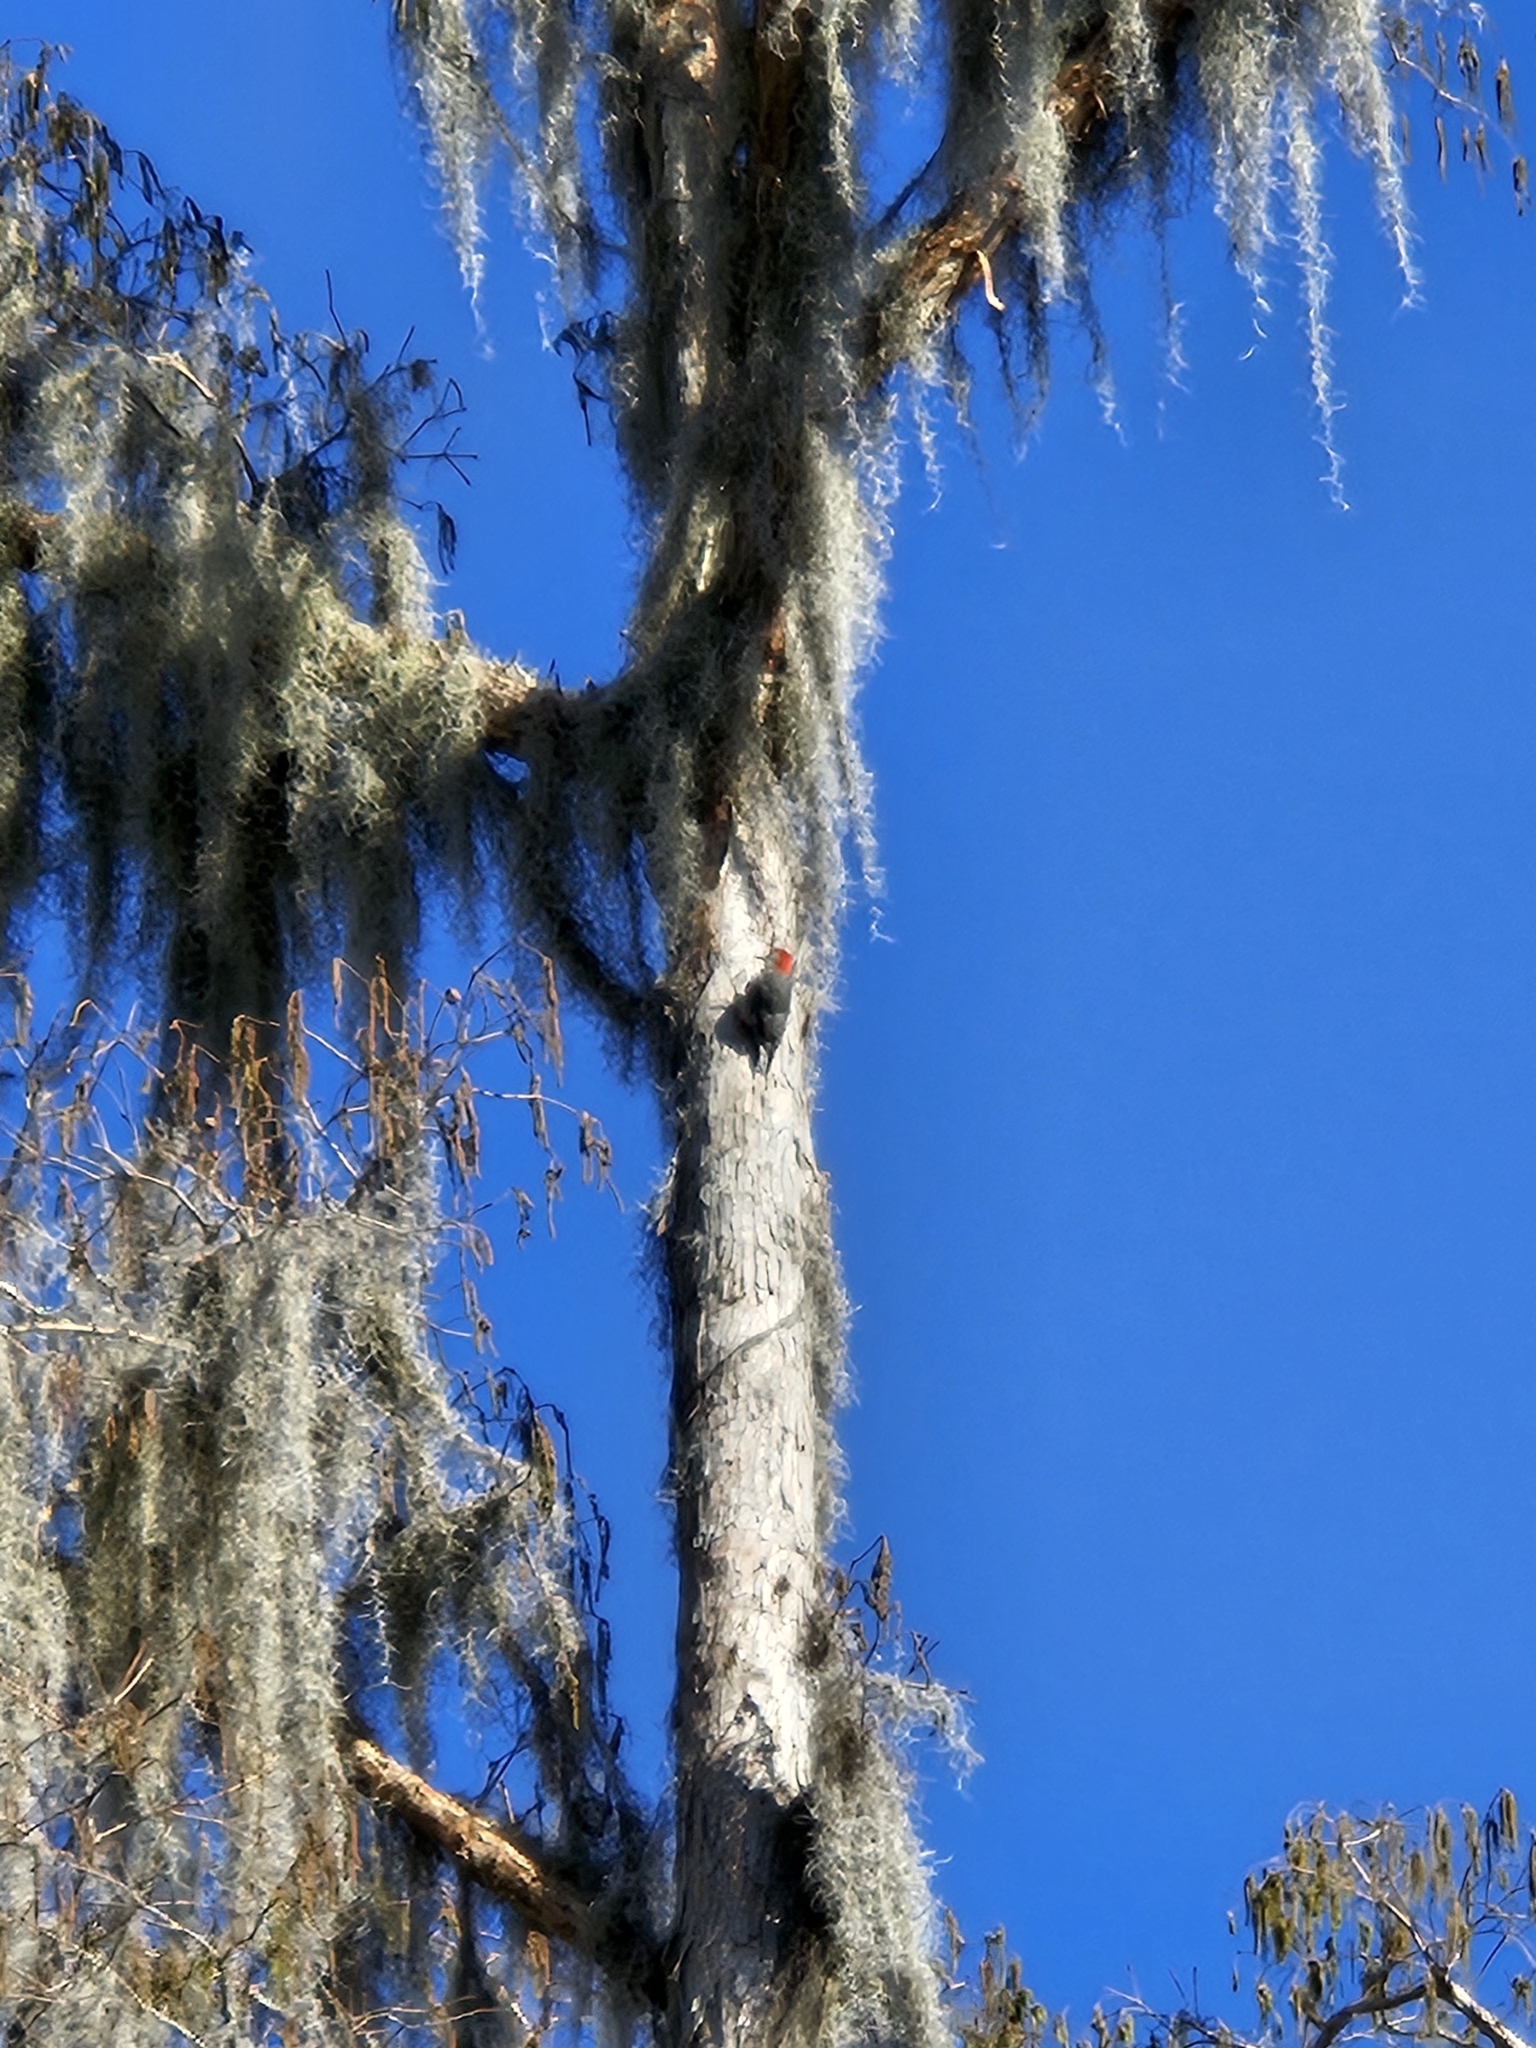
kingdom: Animalia
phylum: Chordata
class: Aves
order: Piciformes
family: Picidae
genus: Melanerpes
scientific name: Melanerpes carolinus
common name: Red-bellied woodpecker
